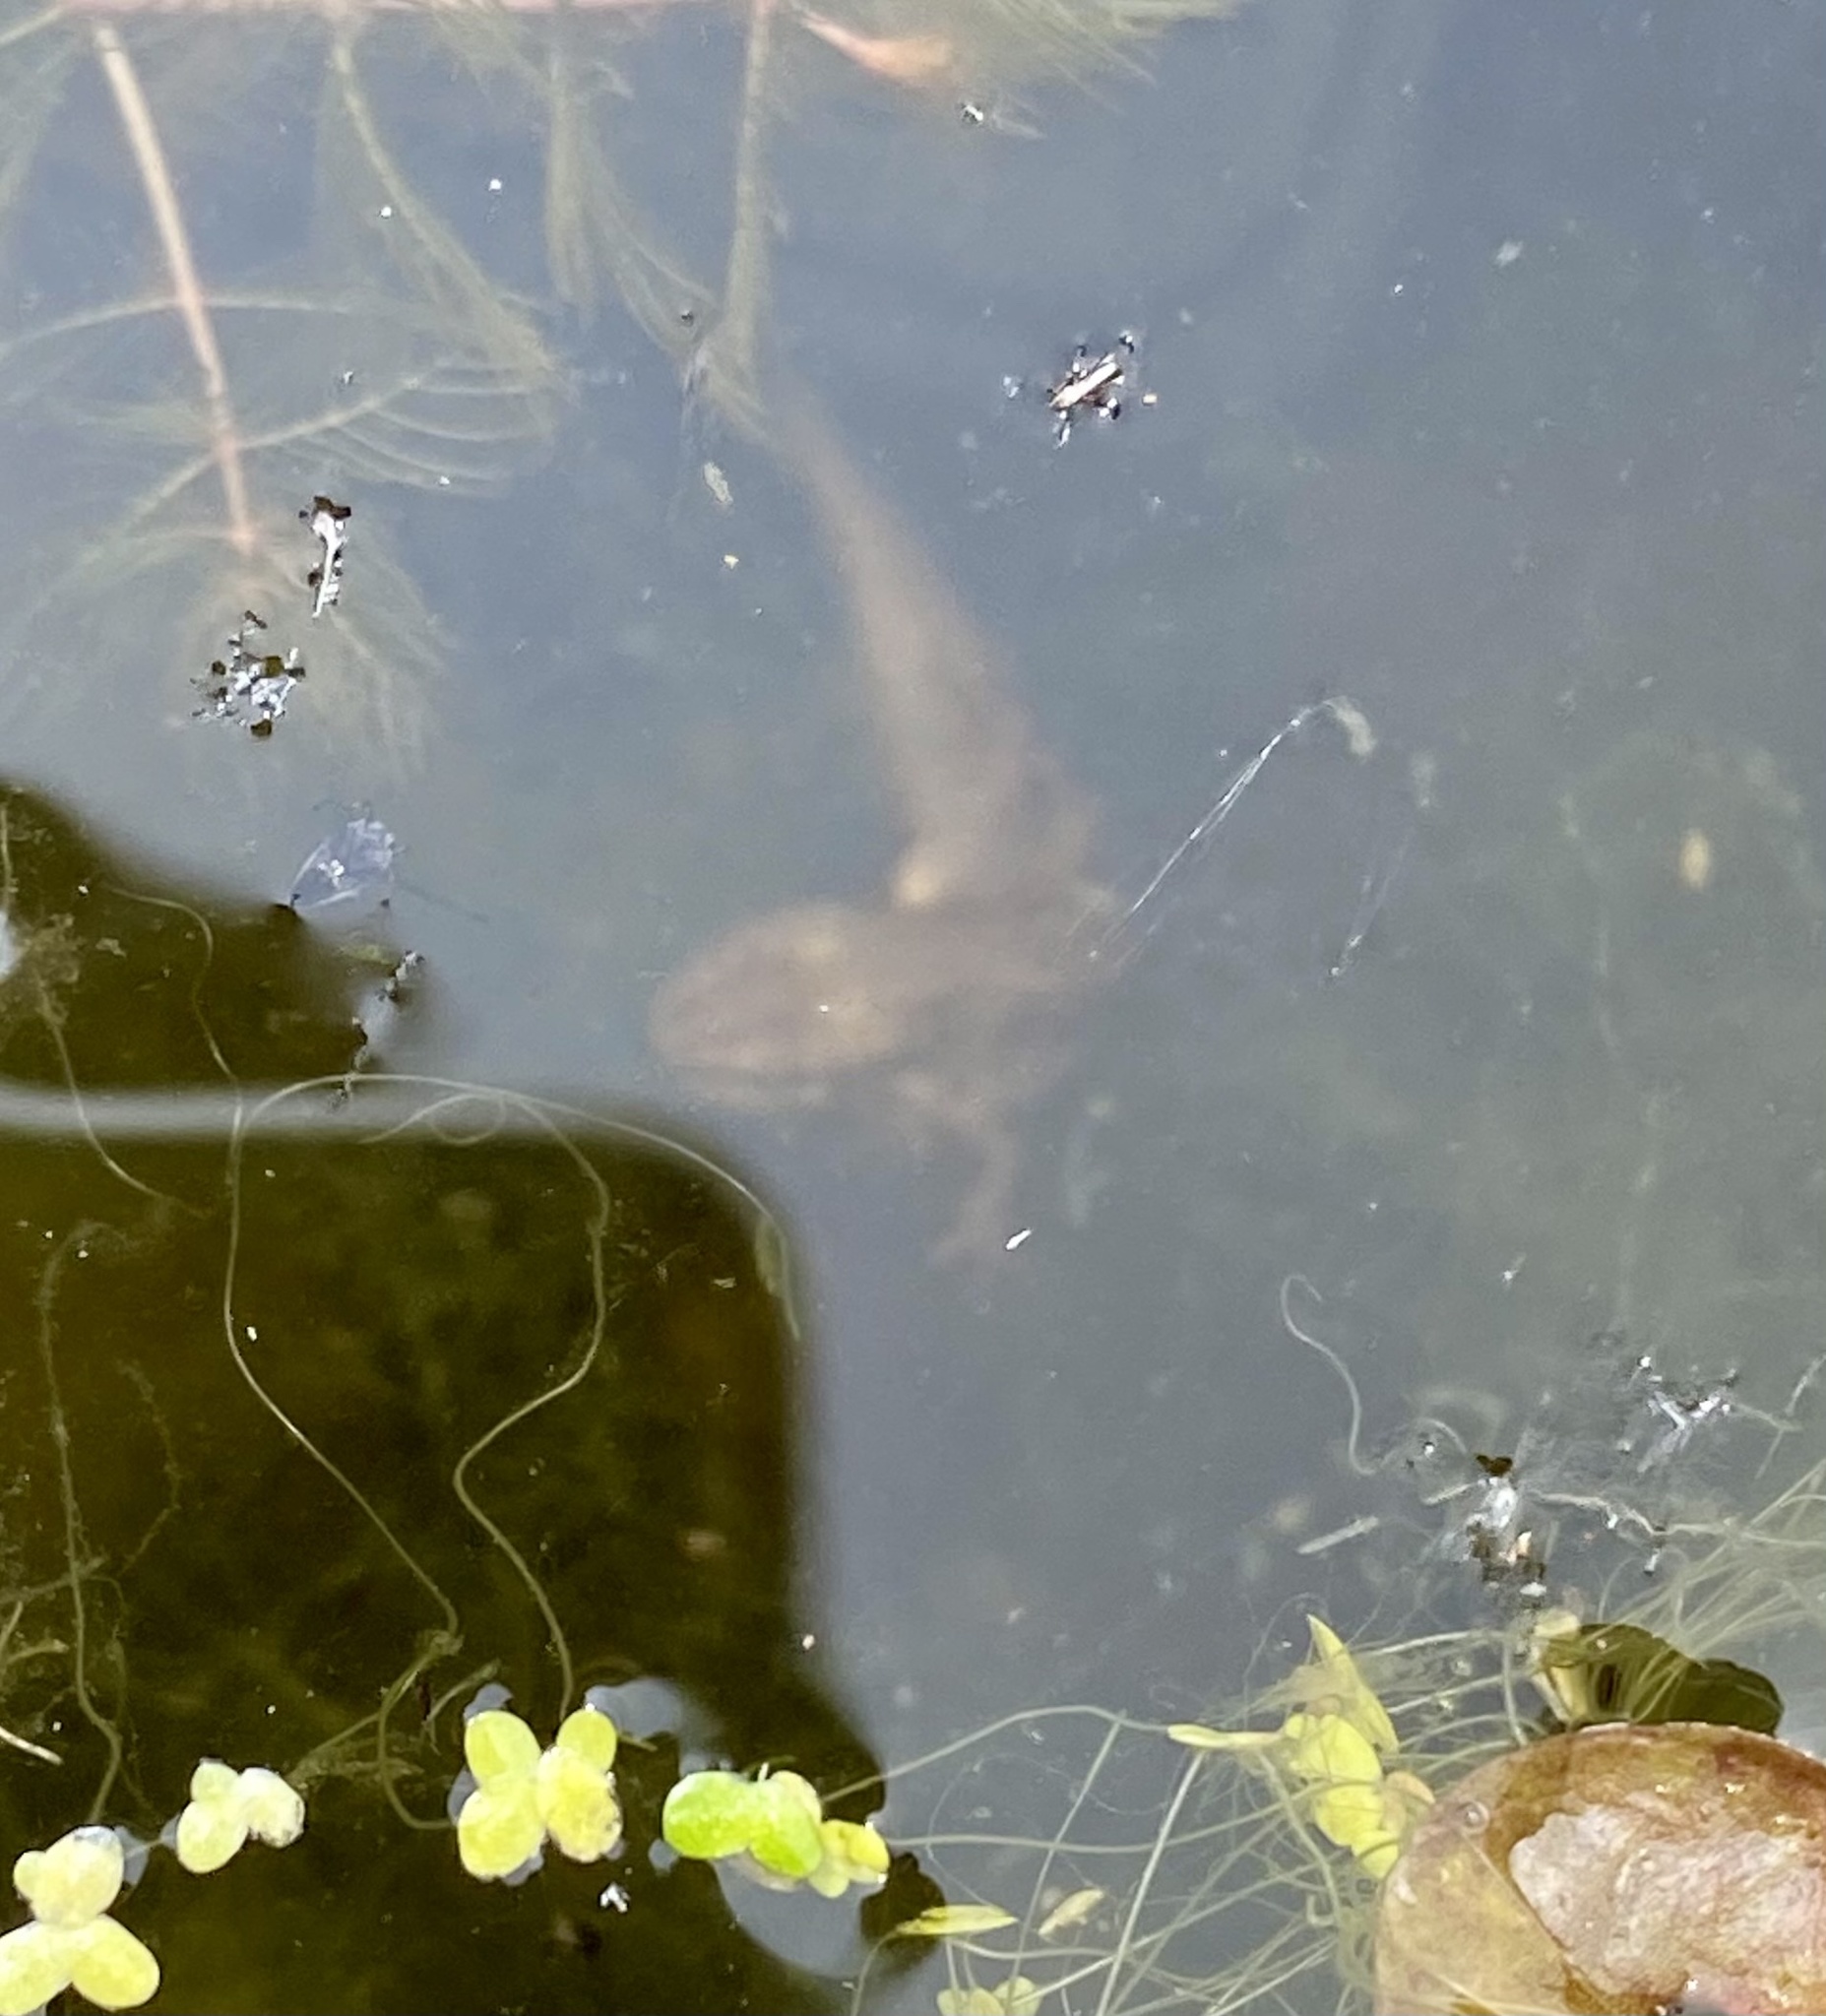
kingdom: Animalia
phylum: Chordata
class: Amphibia
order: Caudata
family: Salamandridae
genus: Lissotriton
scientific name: Lissotriton vulgaris
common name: Smooth newt
